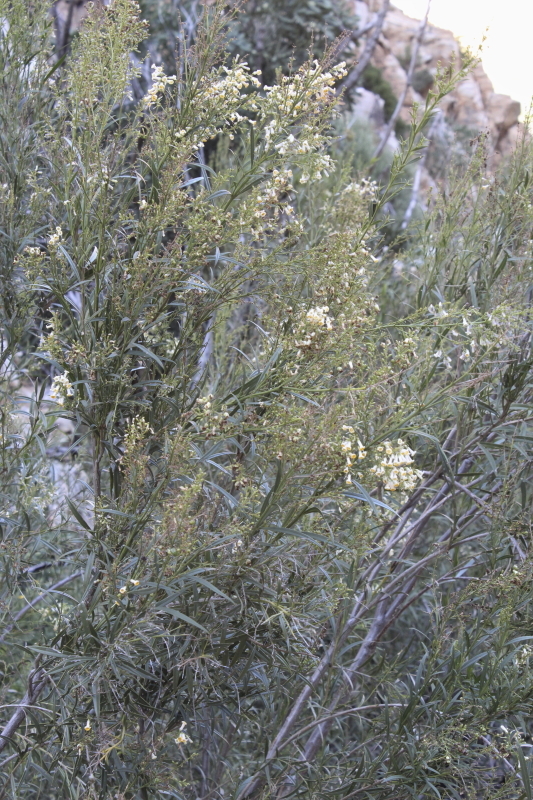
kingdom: Plantae
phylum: Tracheophyta
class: Magnoliopsida
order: Lamiales
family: Scrophulariaceae
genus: Freylinia
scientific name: Freylinia lanceolata
